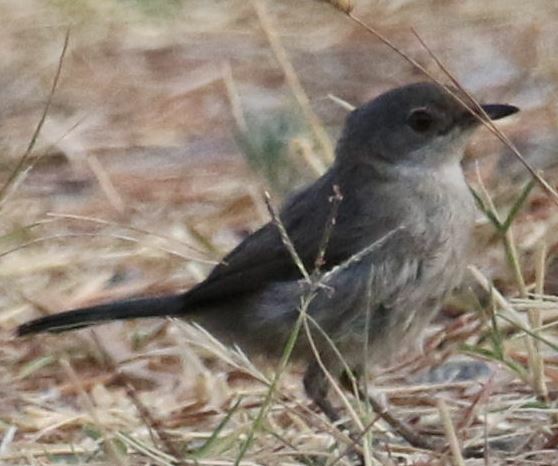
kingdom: Animalia
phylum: Chordata
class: Aves
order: Passeriformes
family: Sylviidae
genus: Curruca
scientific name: Curruca melanocephala
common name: Sardinian warbler
